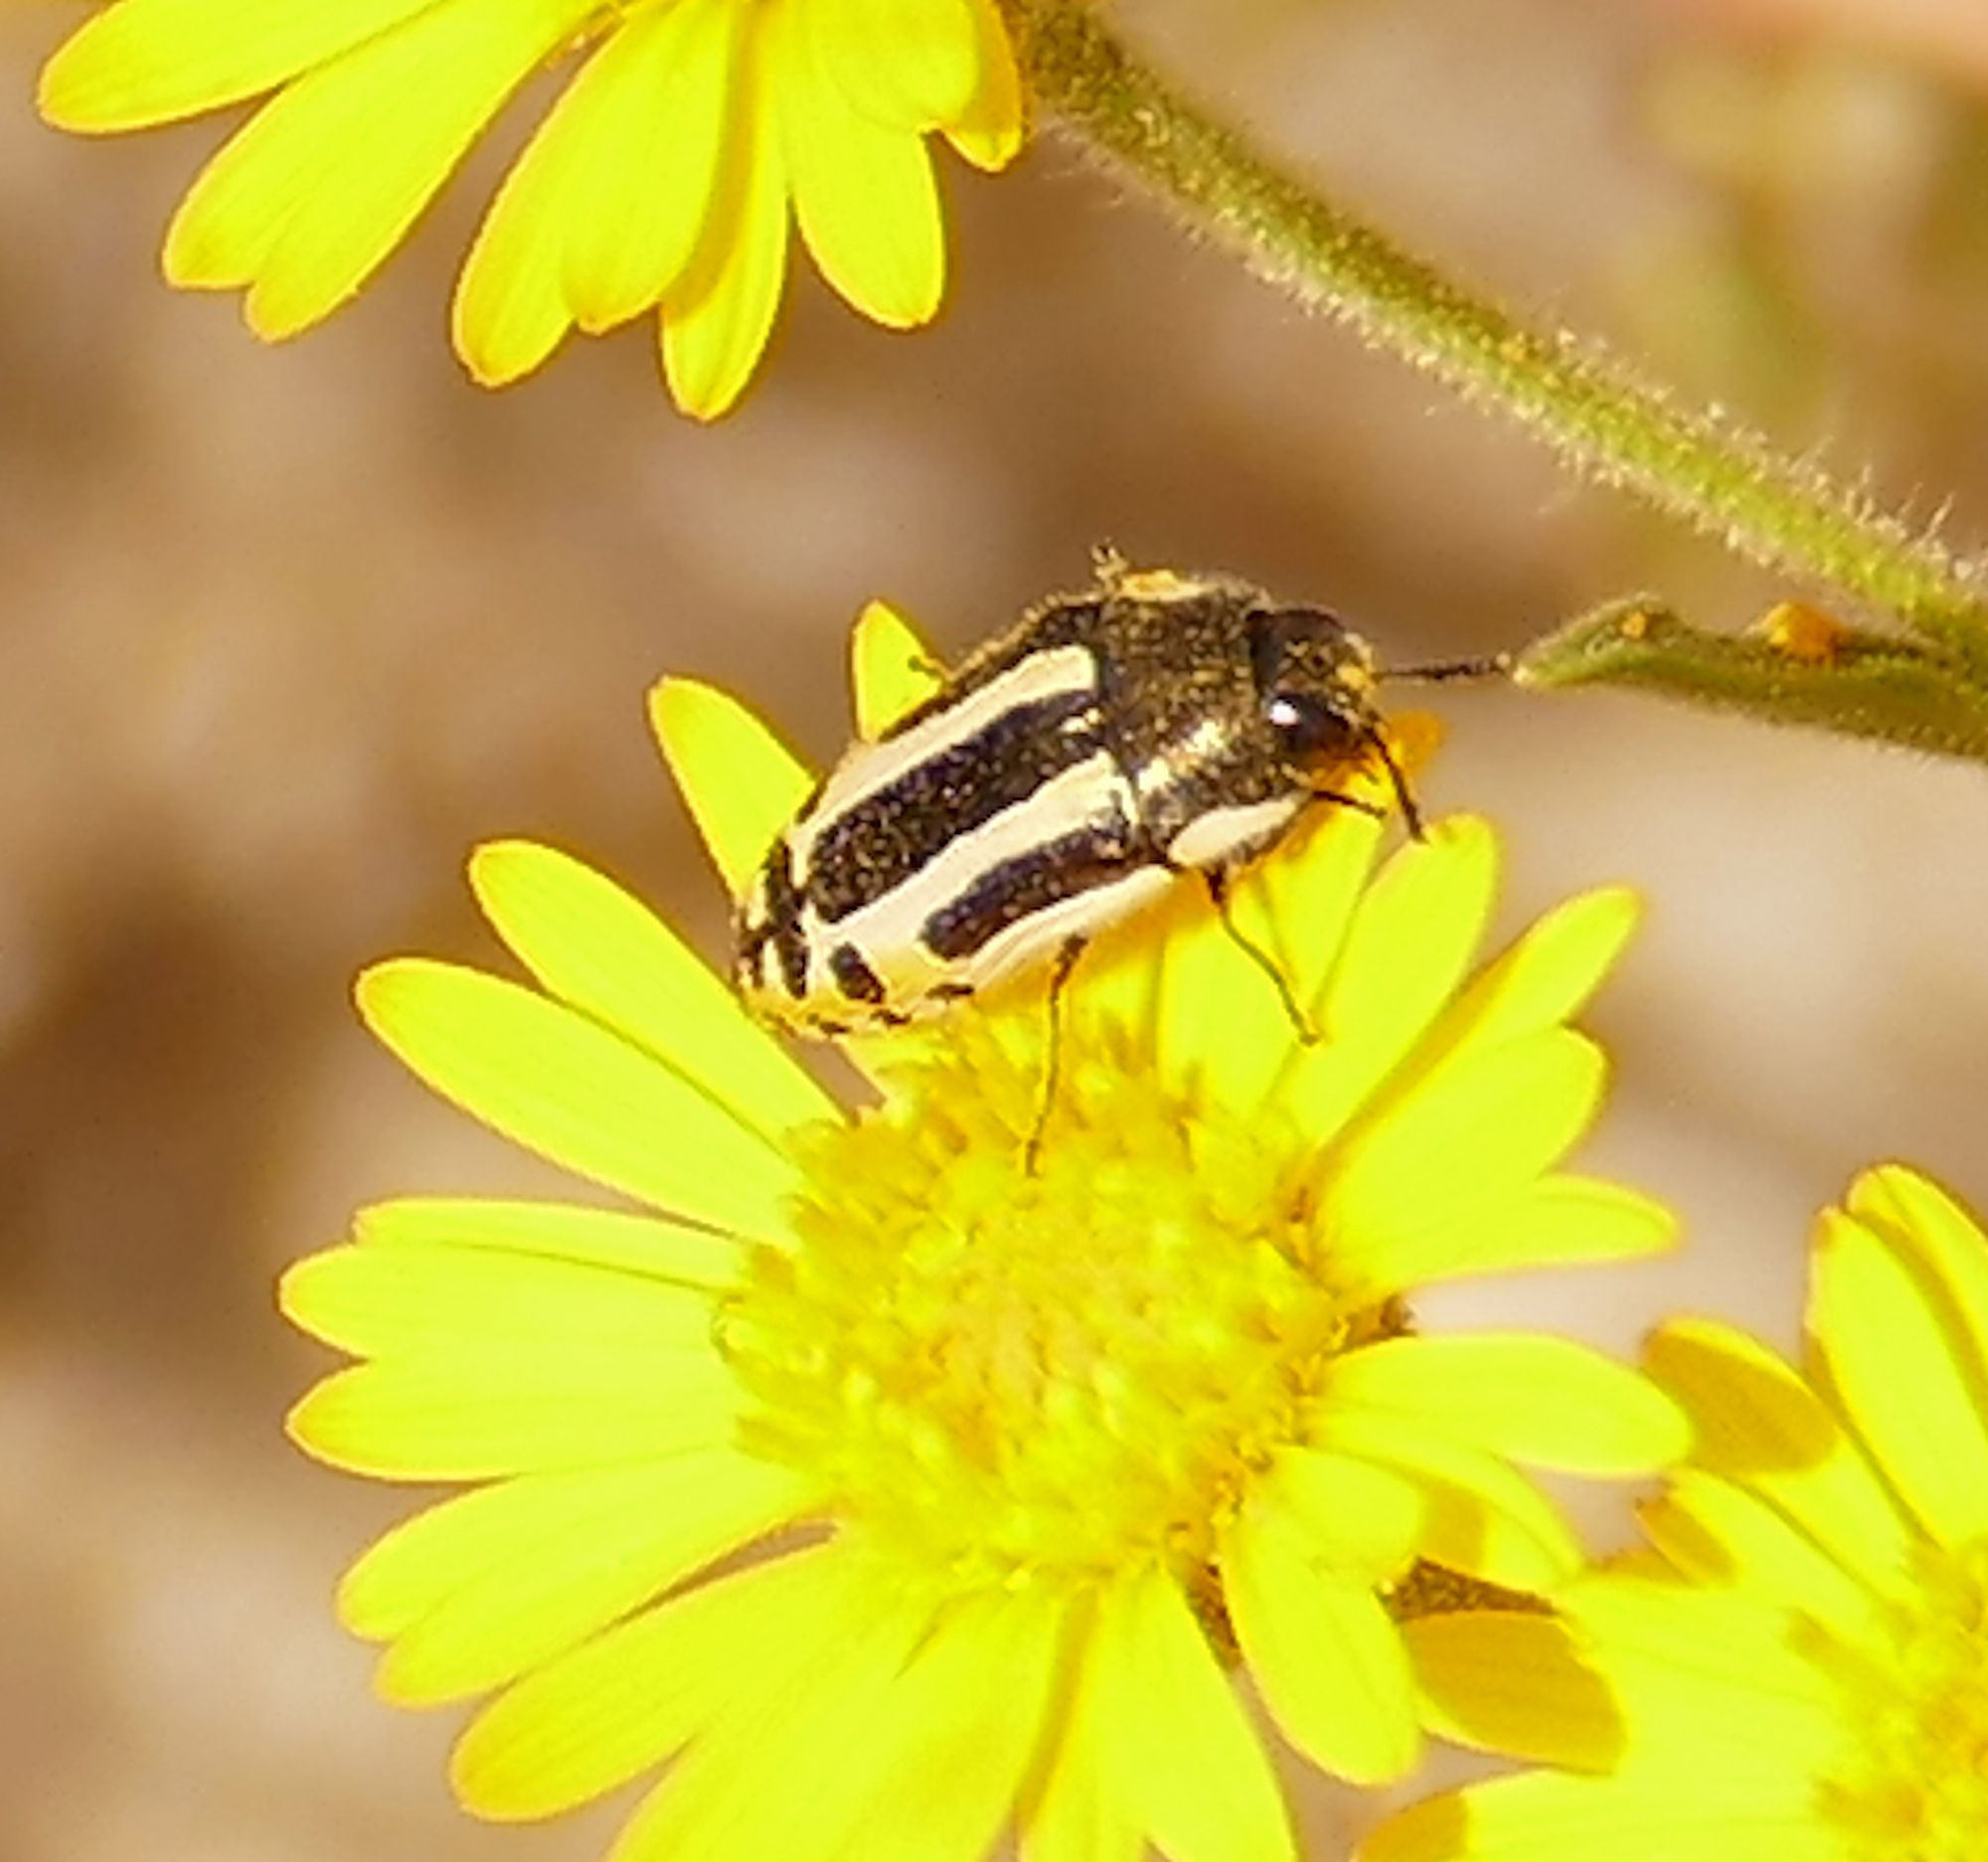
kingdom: Animalia
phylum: Arthropoda
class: Insecta
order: Coleoptera
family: Buprestidae
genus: Acmaeodera
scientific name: Acmaeodera scalaris
